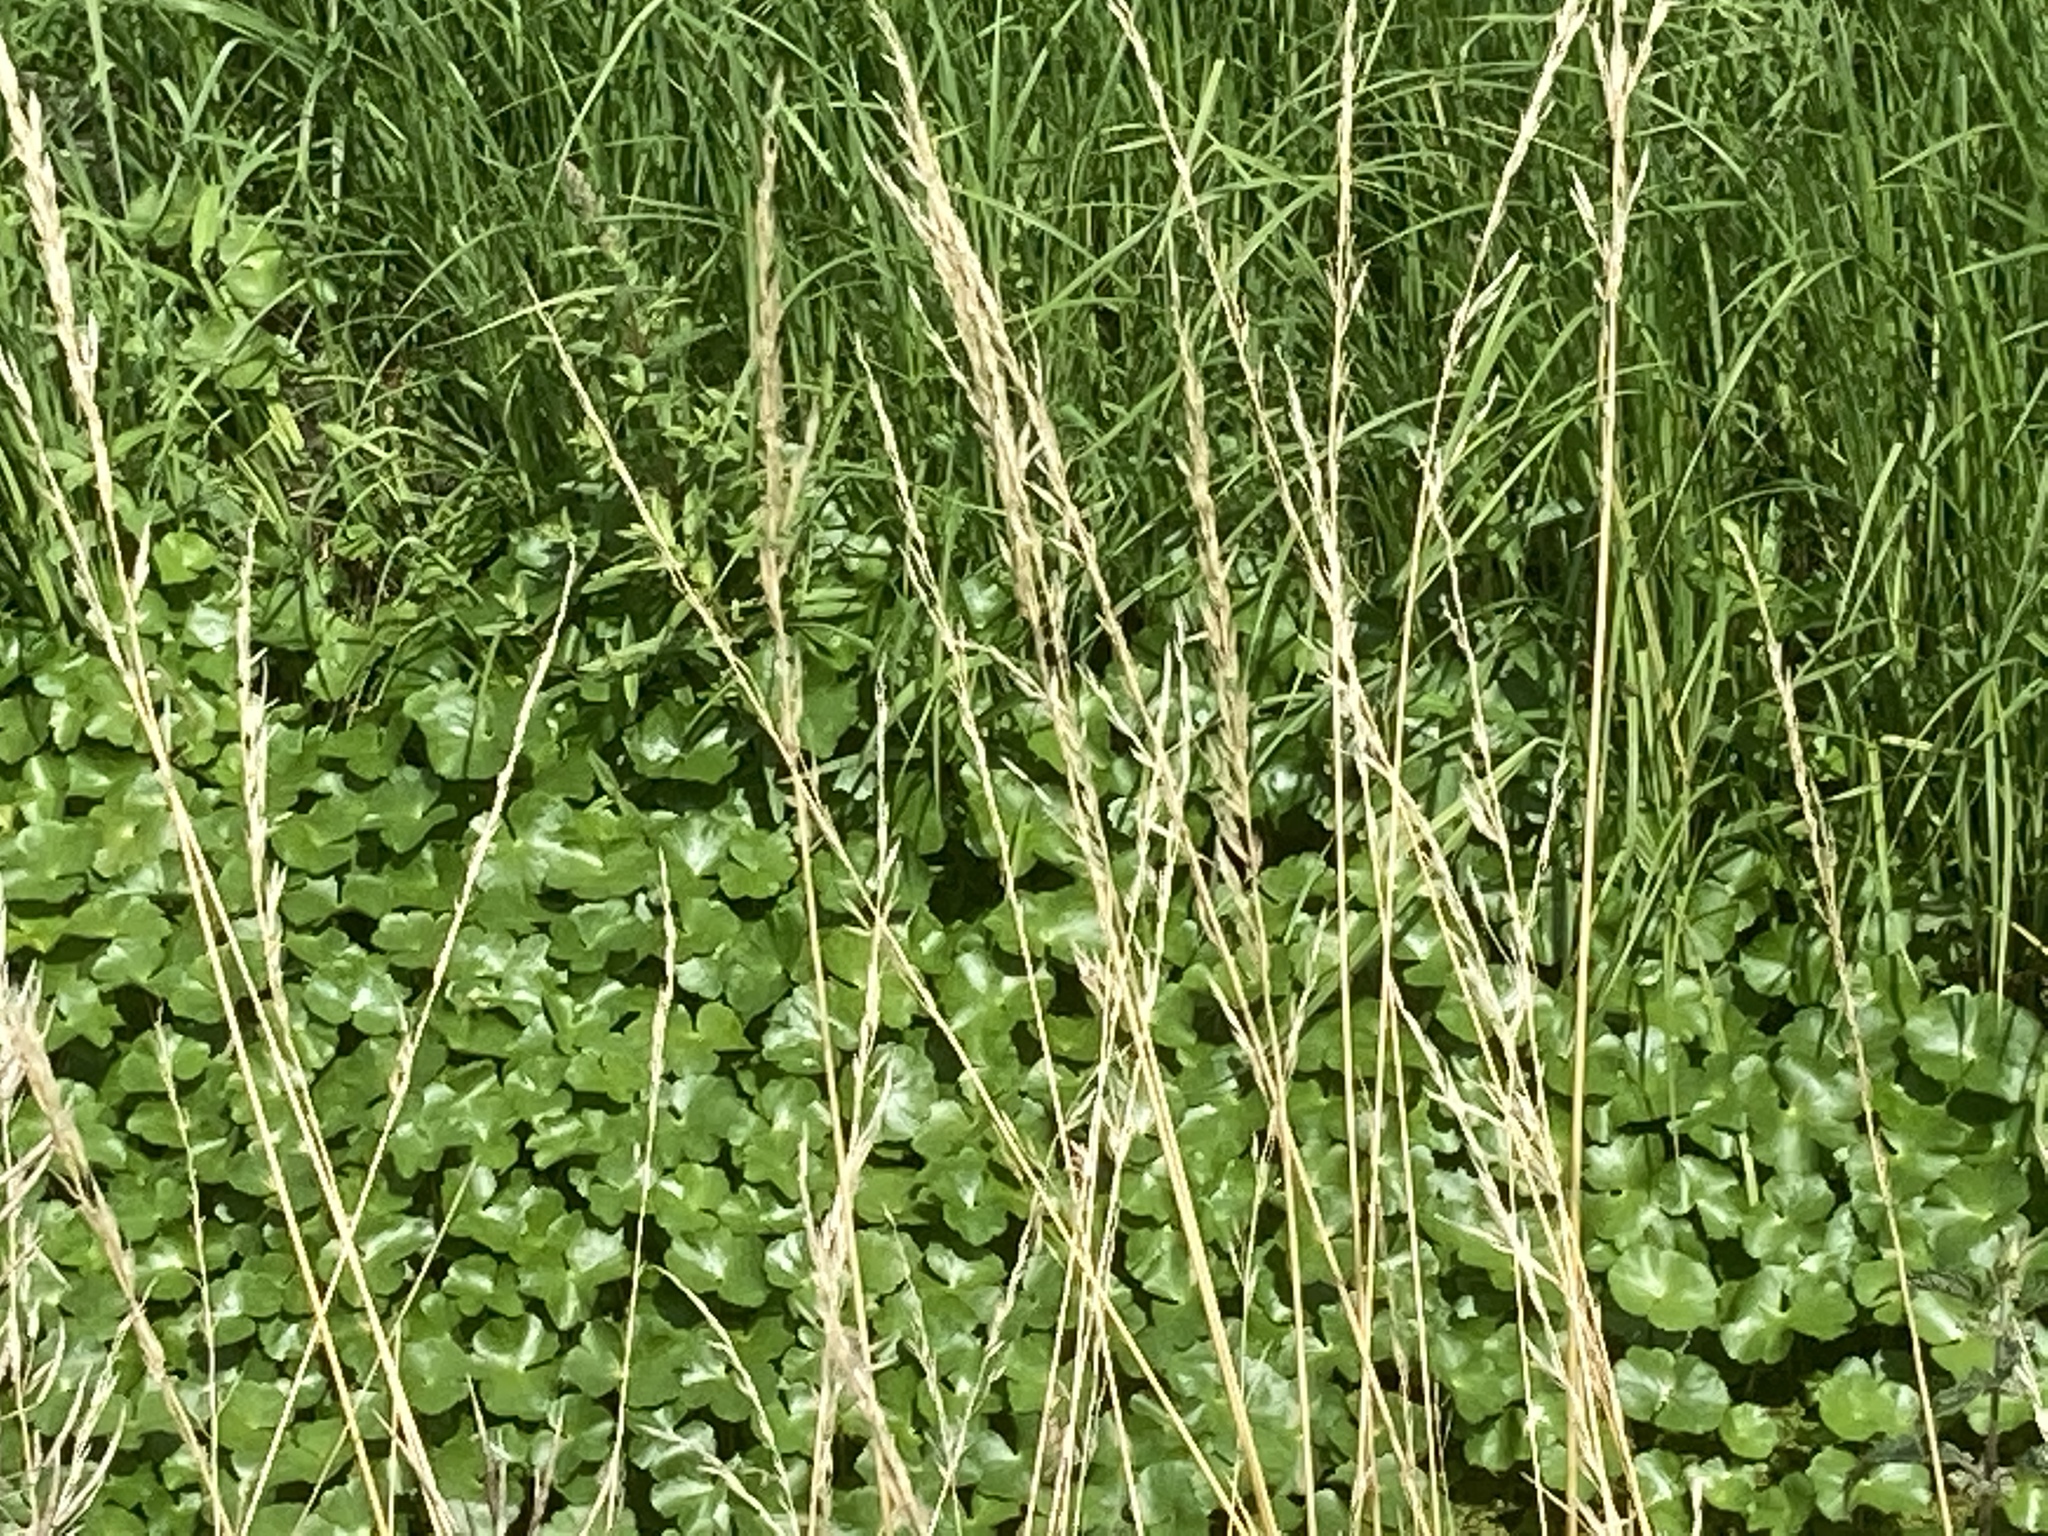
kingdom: Plantae
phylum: Tracheophyta
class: Magnoliopsida
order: Apiales
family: Araliaceae
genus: Hydrocotyle
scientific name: Hydrocotyle ranunculoides
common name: Floating pennywort
